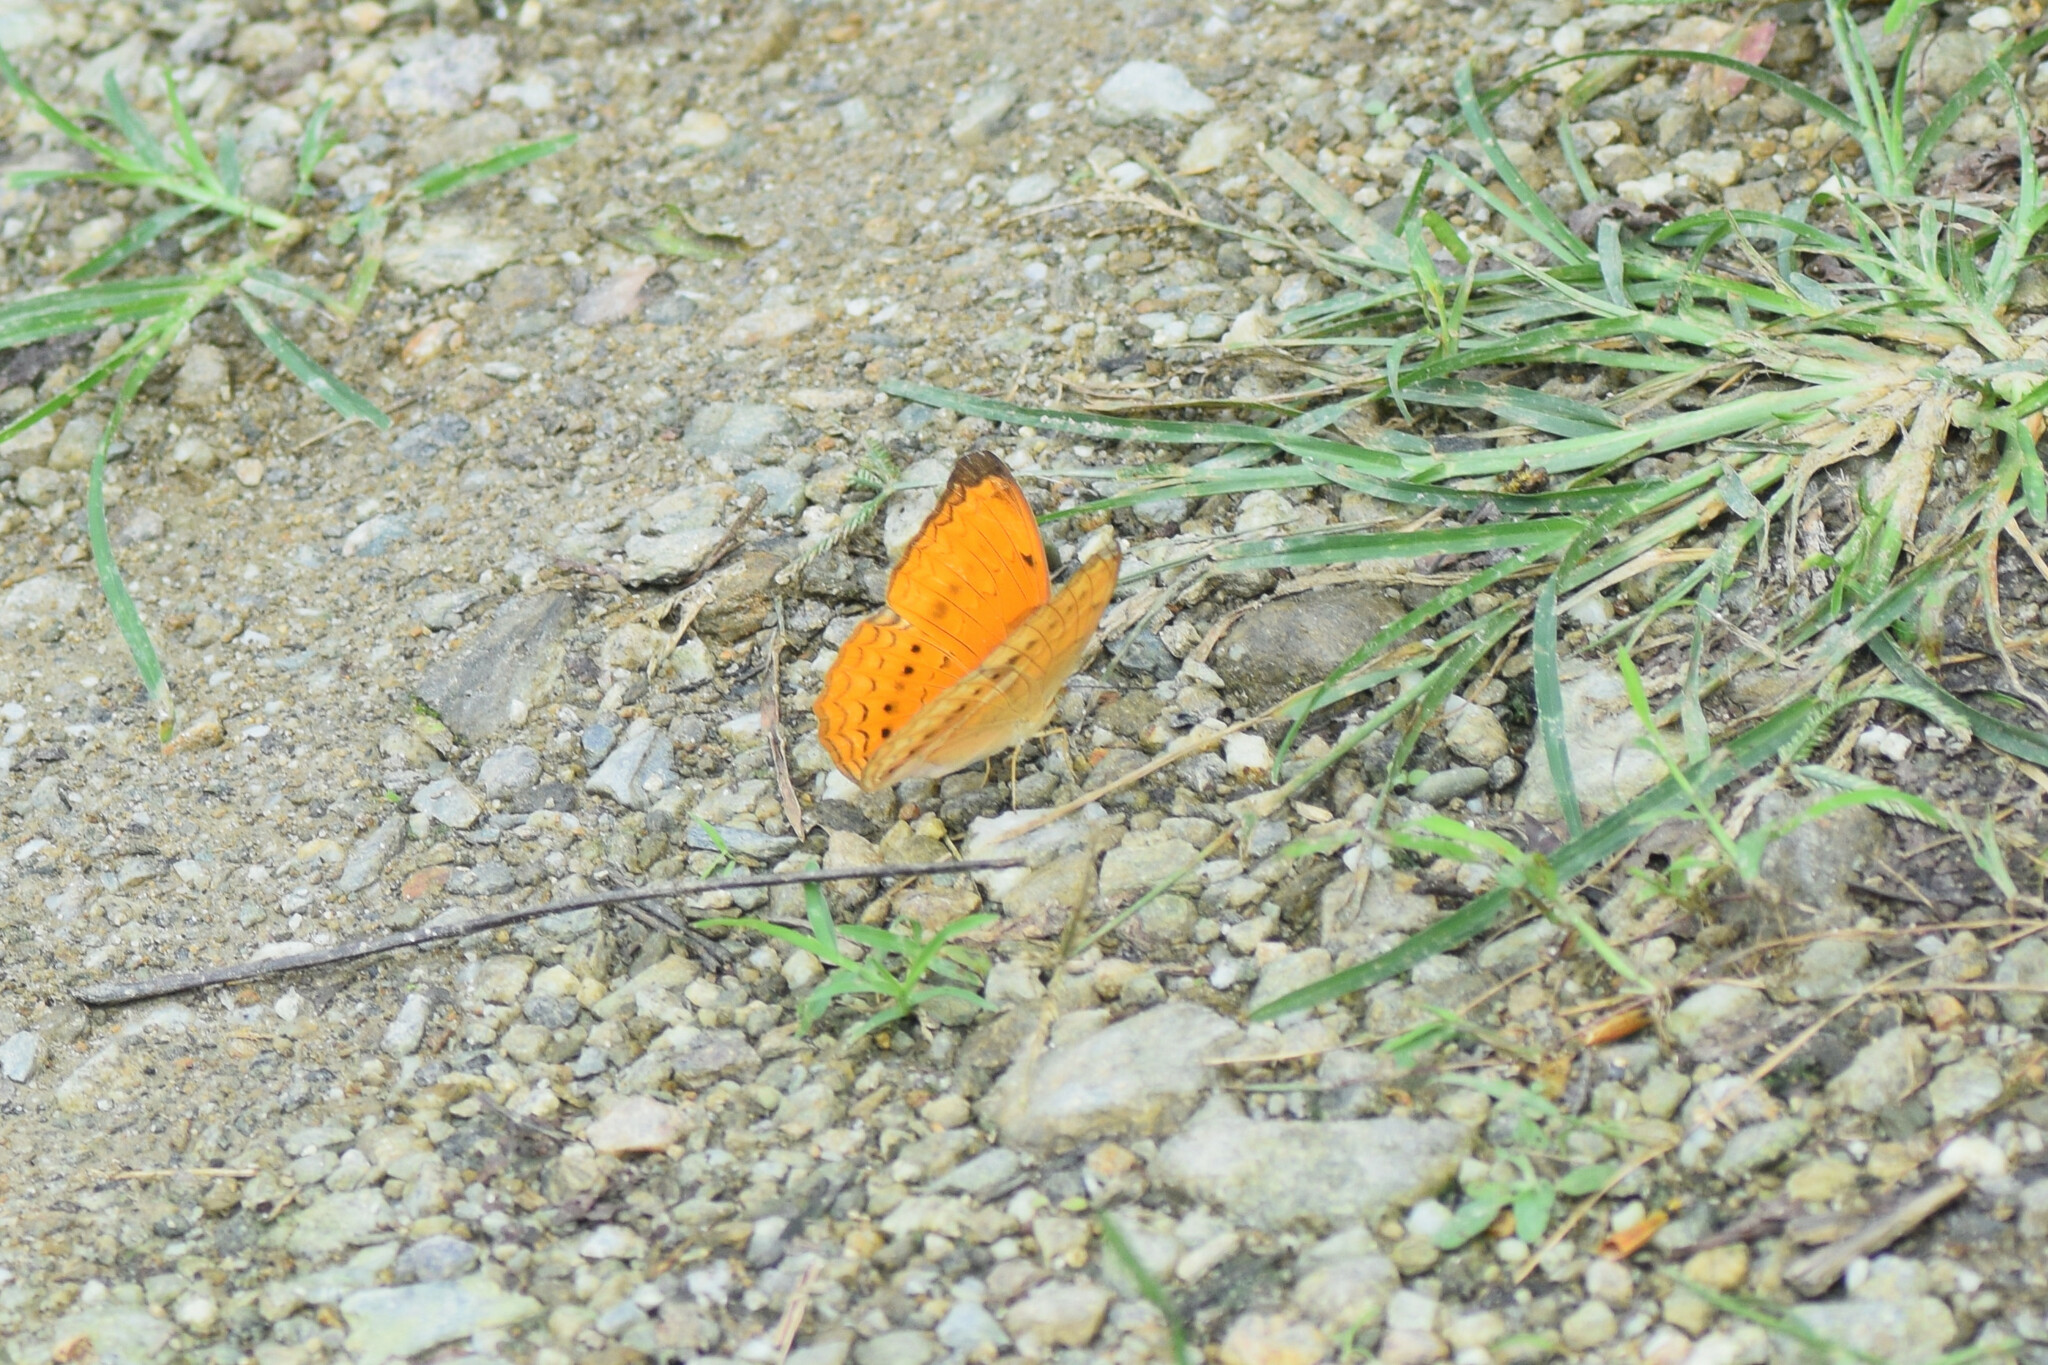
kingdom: Animalia
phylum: Arthropoda
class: Insecta
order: Lepidoptera
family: Nymphalidae
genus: Cirrochroa
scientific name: Cirrochroa tyche
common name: Common yeoman
